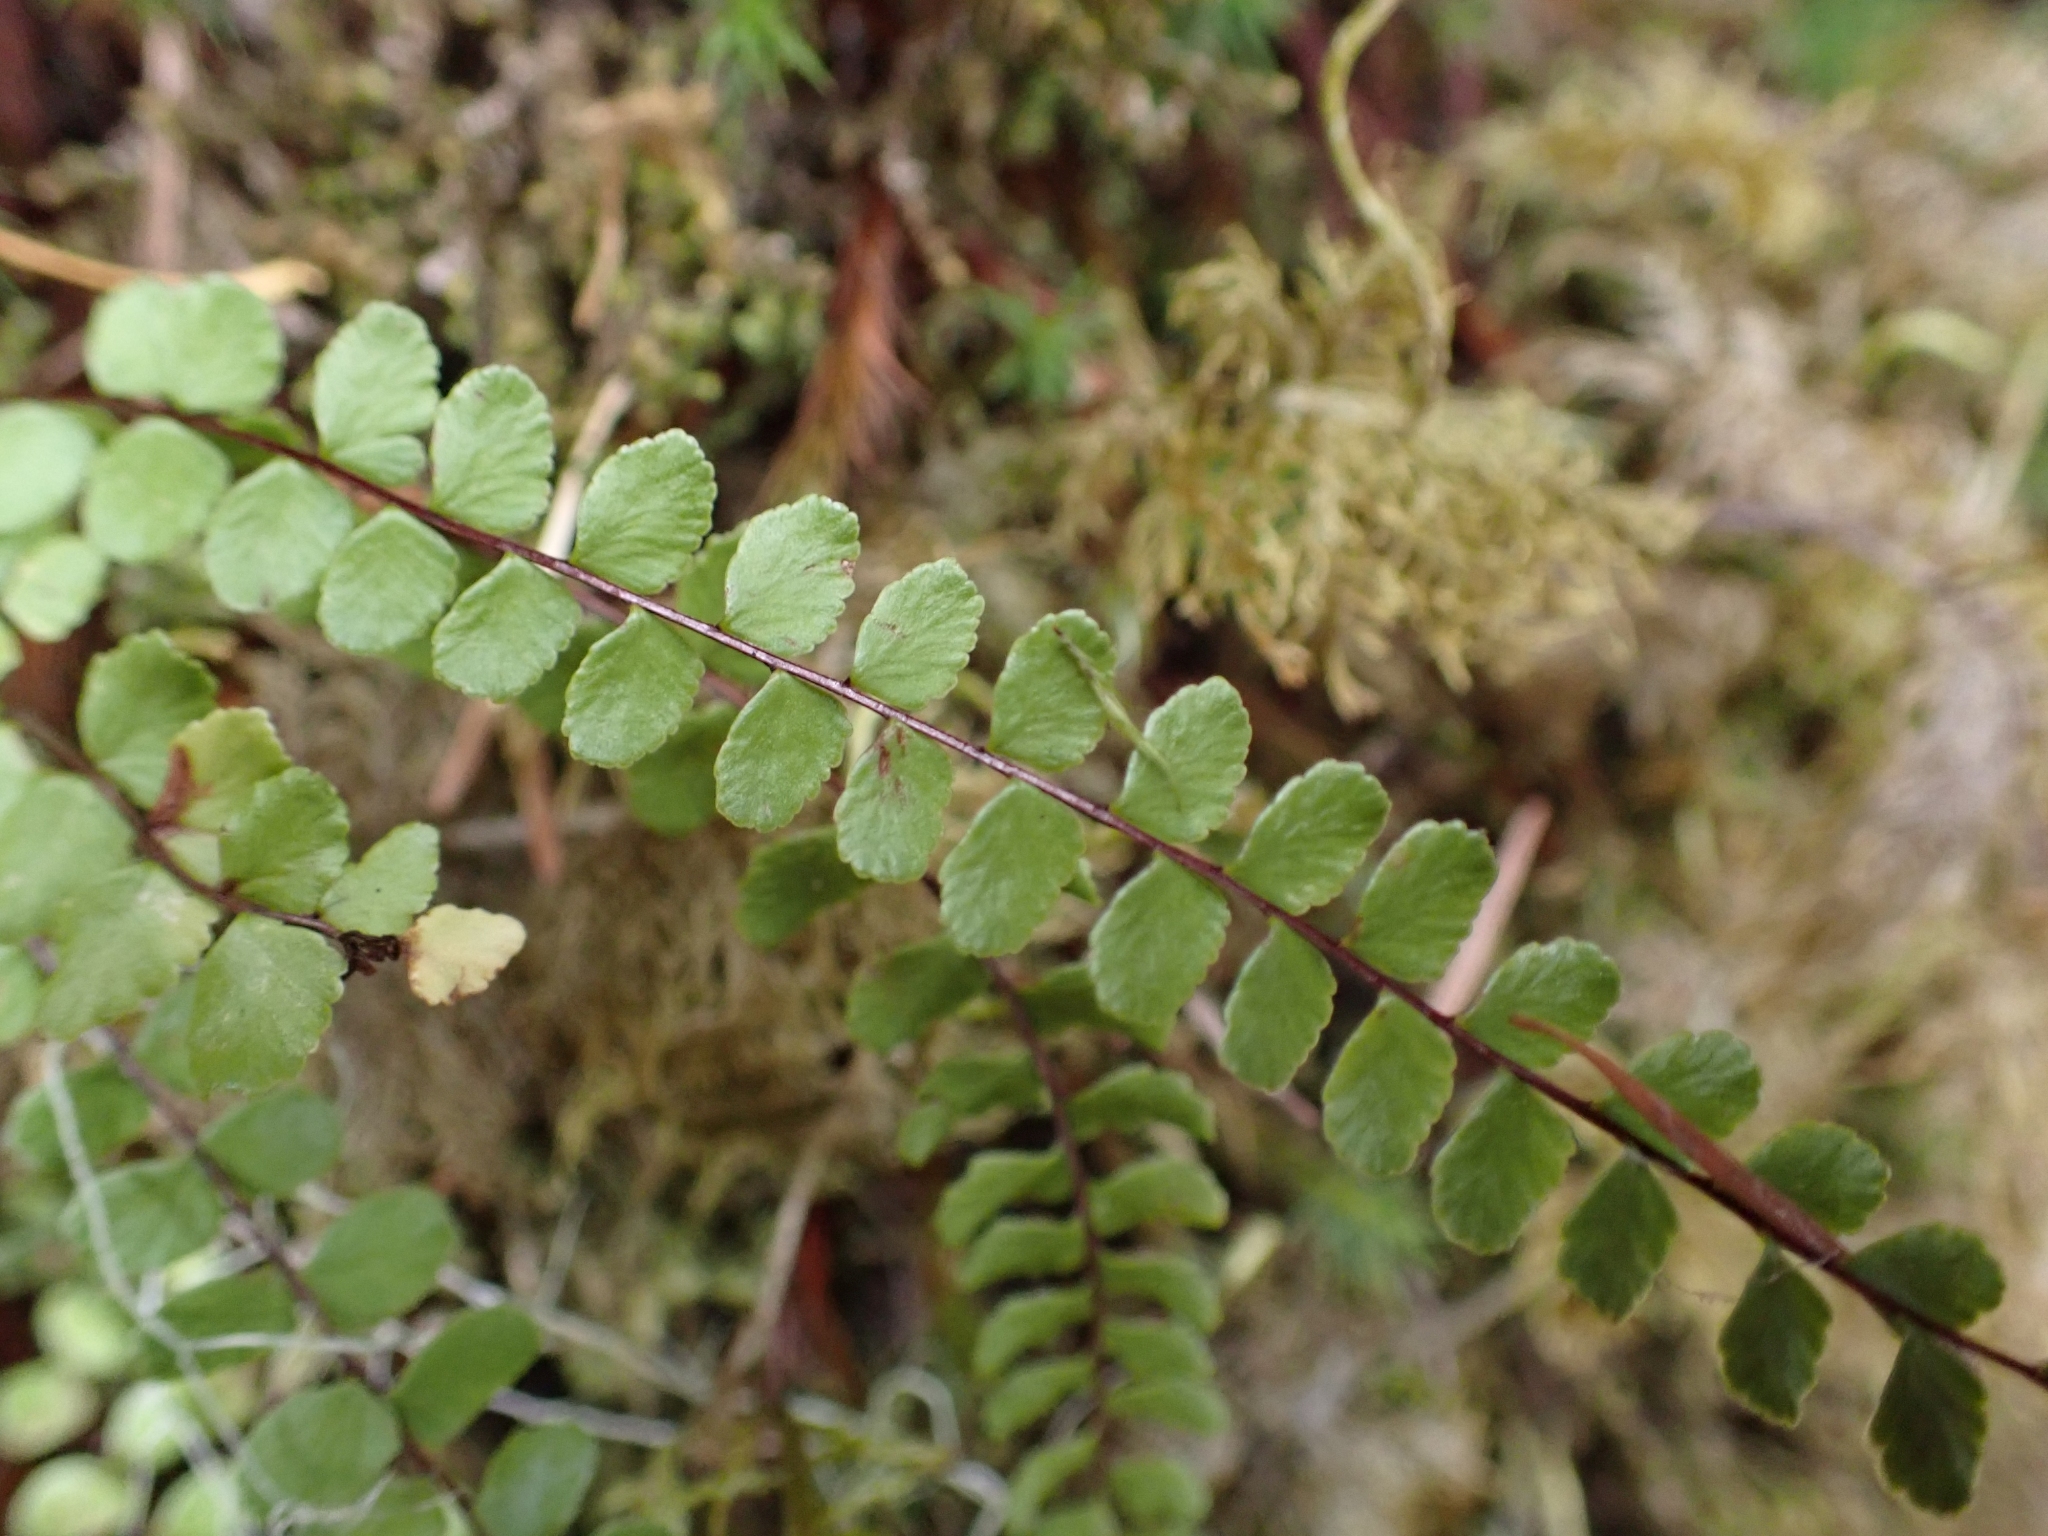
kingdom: Plantae
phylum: Tracheophyta
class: Polypodiopsida
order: Polypodiales
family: Aspleniaceae
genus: Asplenium
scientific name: Asplenium trichomanes
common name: Maidenhair spleenwort
